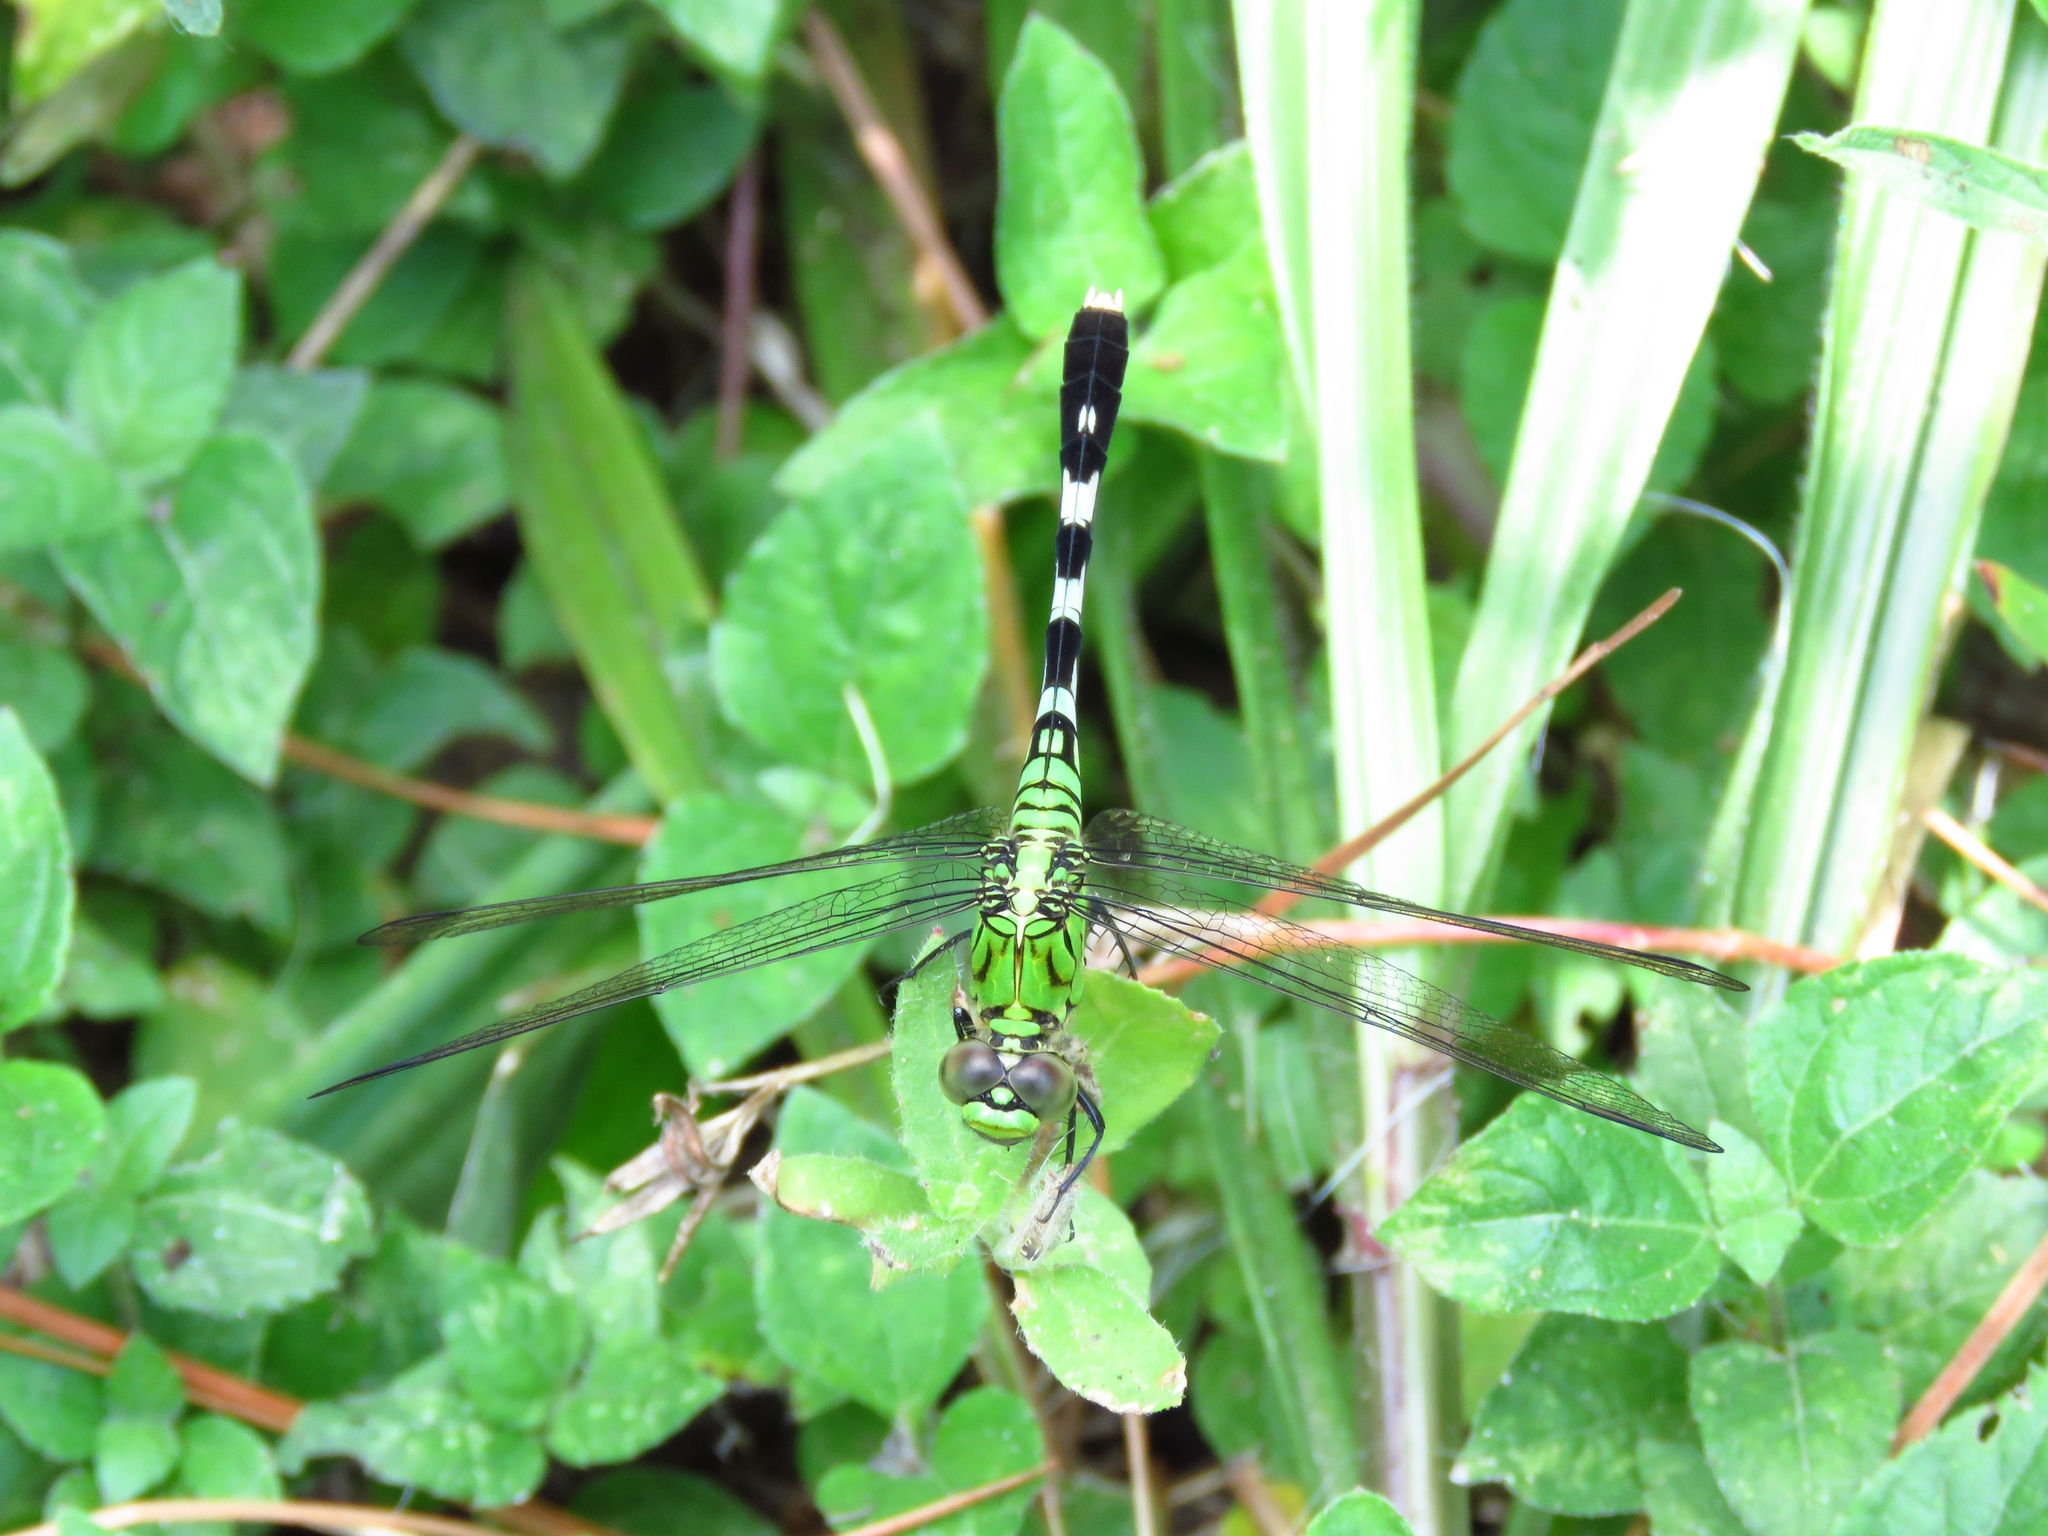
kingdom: Animalia
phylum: Arthropoda
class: Insecta
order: Odonata
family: Libellulidae
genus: Erythemis
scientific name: Erythemis simplicicollis
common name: Eastern pondhawk
